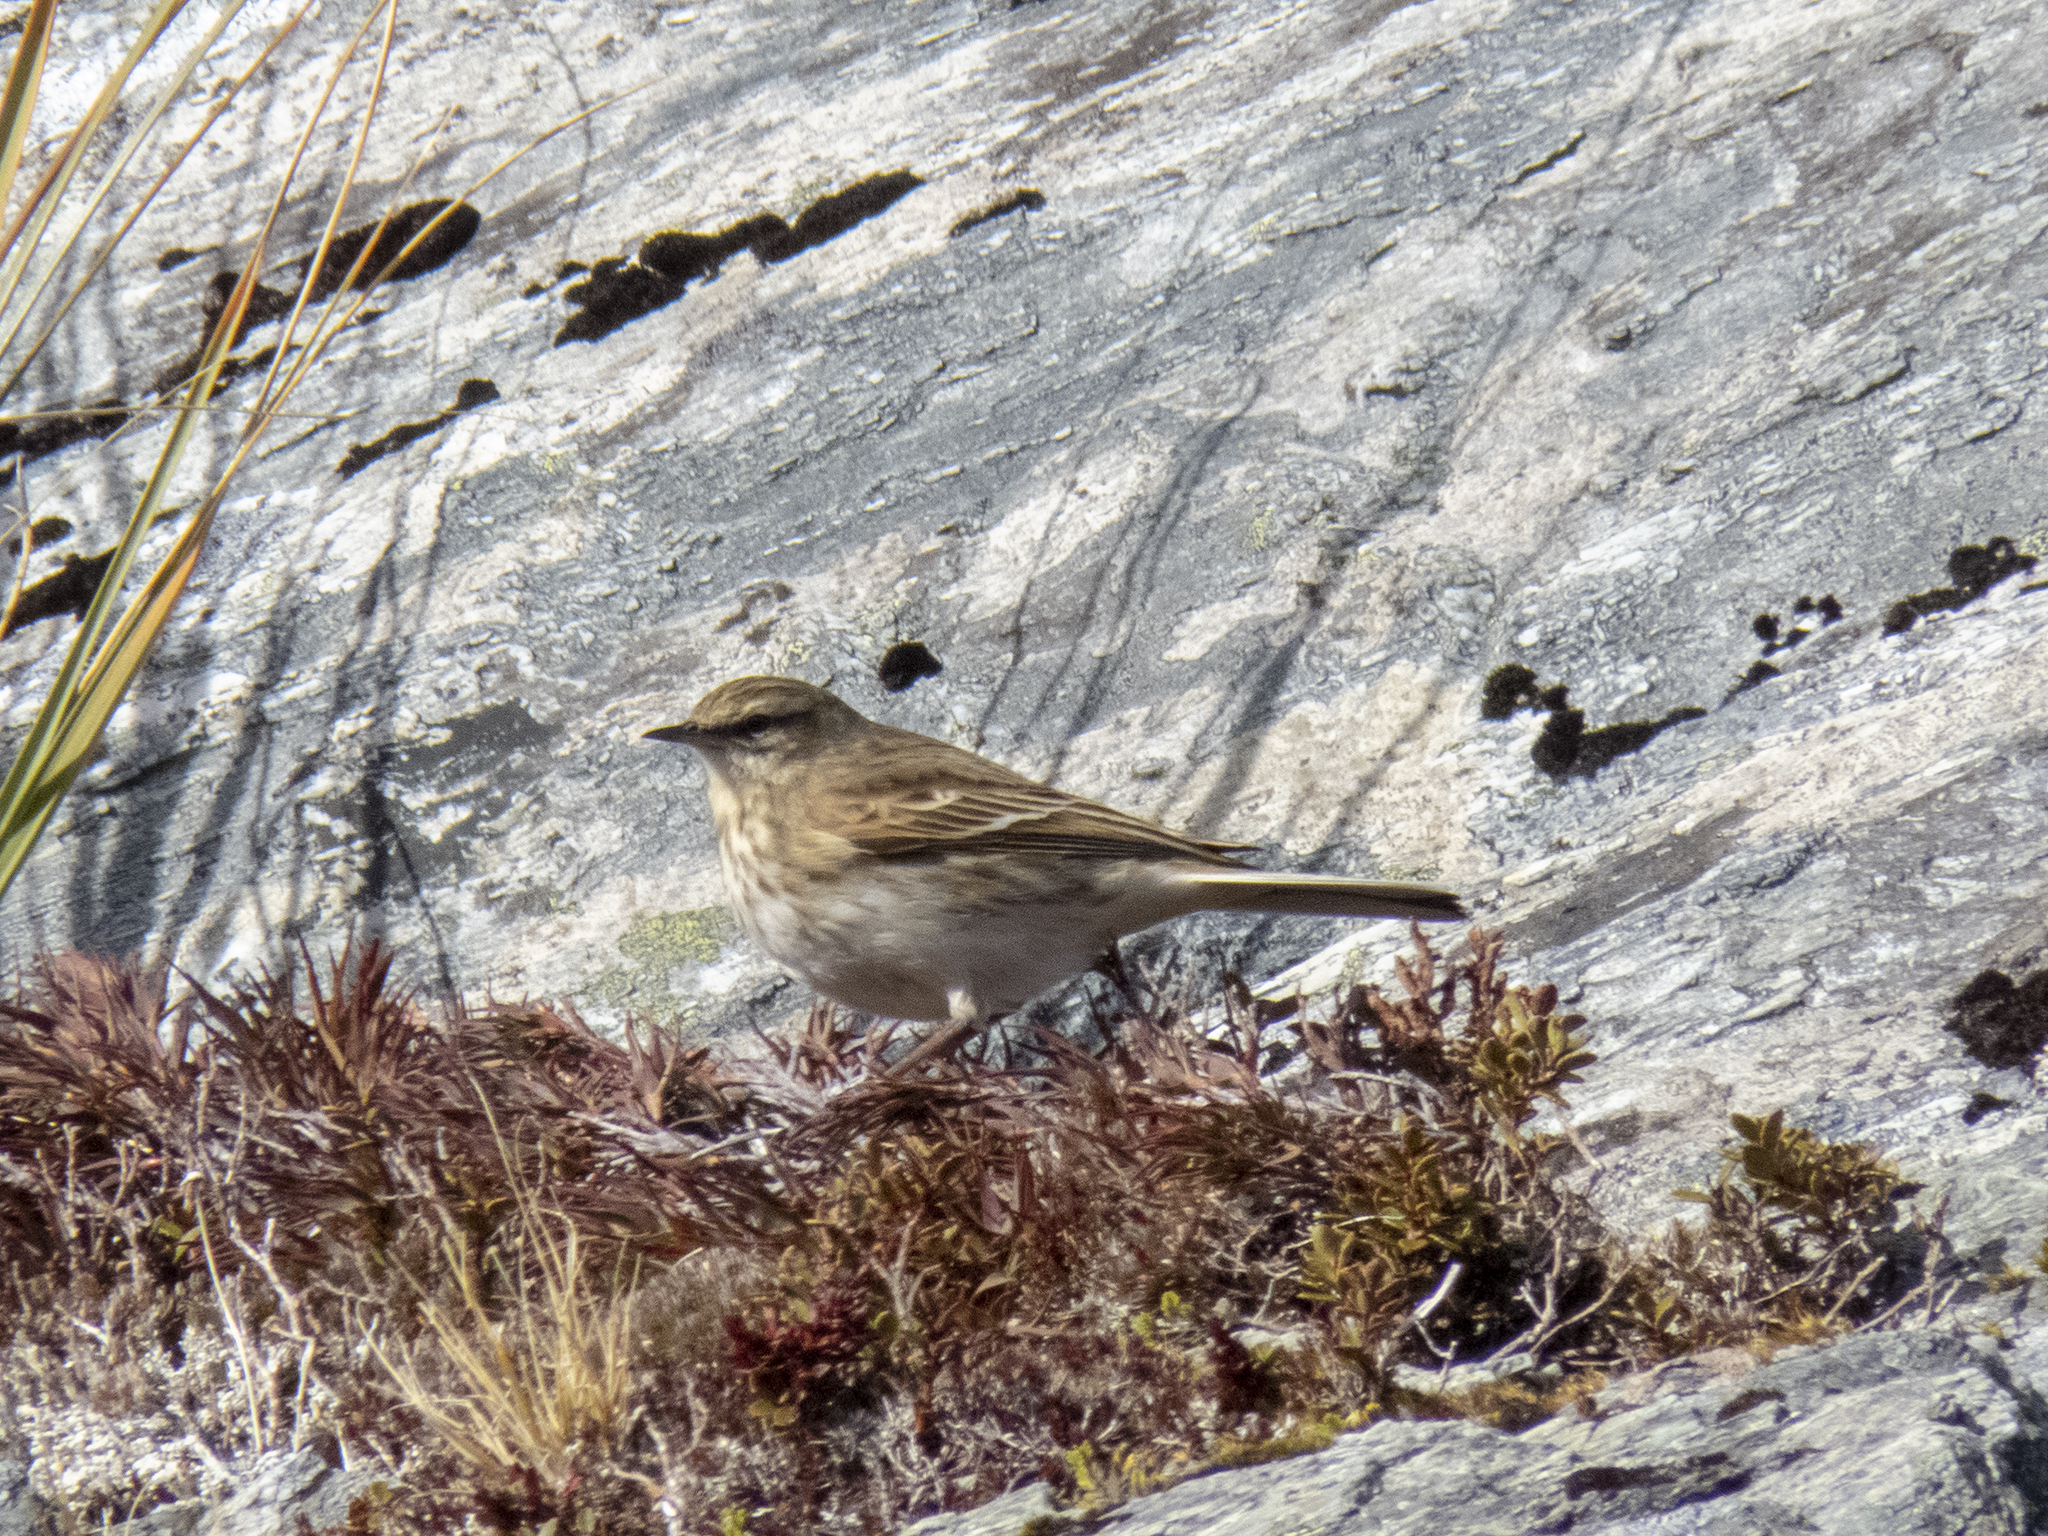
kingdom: Animalia
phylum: Chordata
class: Aves
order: Passeriformes
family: Motacillidae
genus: Anthus
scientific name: Anthus novaeseelandiae
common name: New zealand pipit
